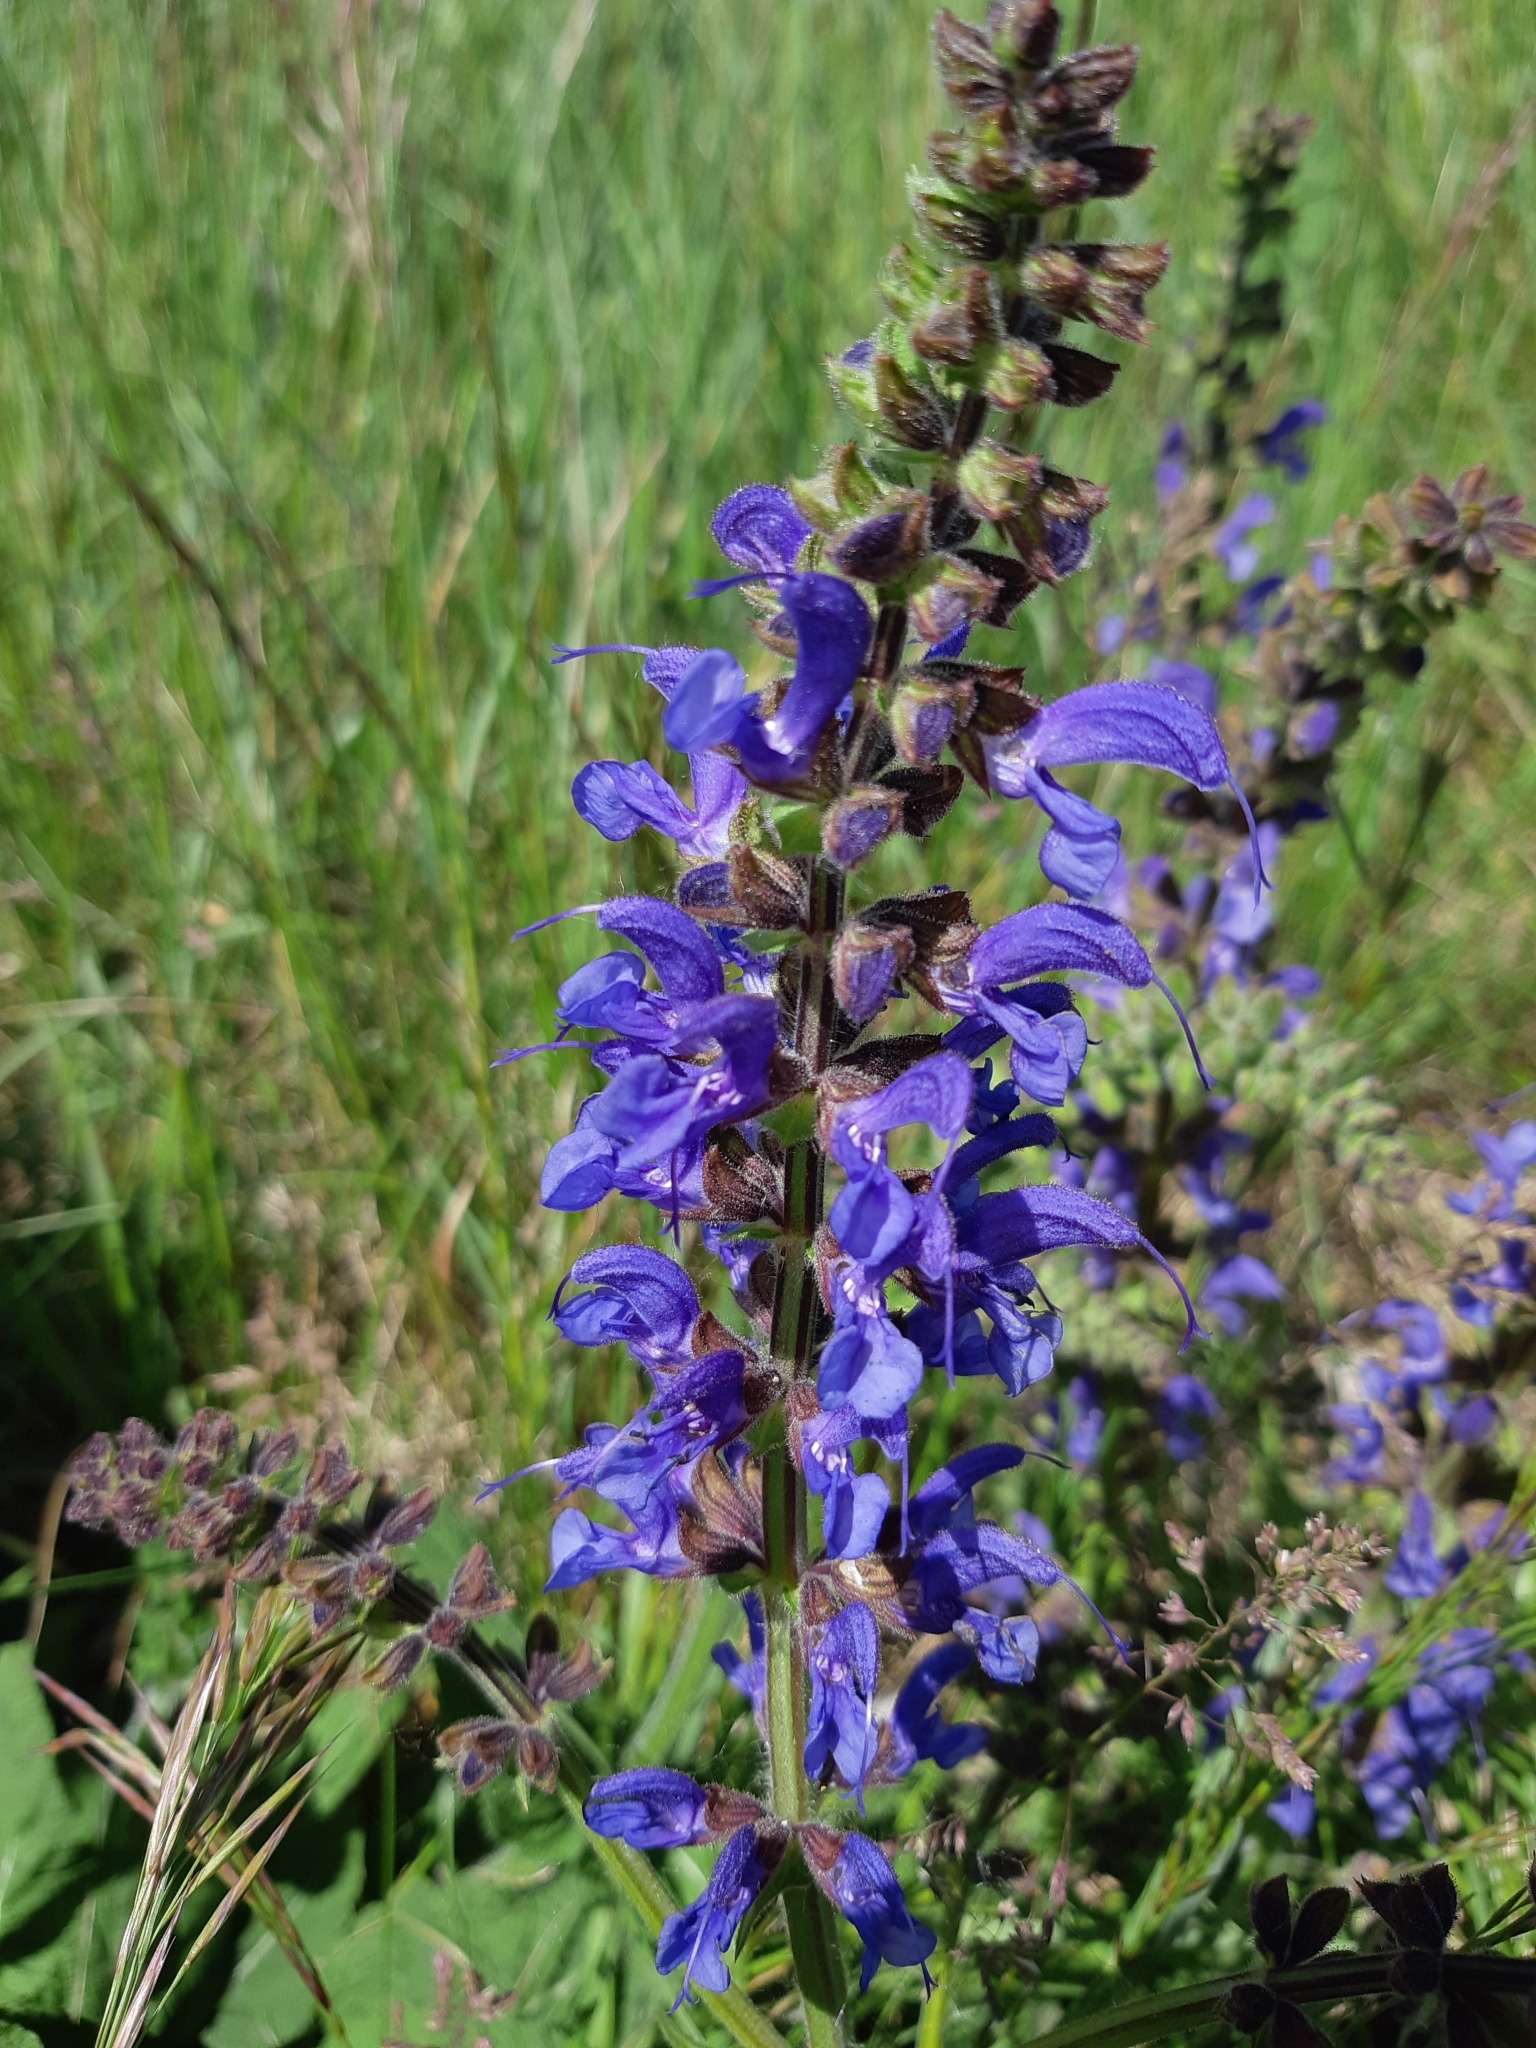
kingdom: Plantae
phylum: Tracheophyta
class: Magnoliopsida
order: Lamiales
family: Lamiaceae
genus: Salvia
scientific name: Salvia pratensis
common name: Meadow sage
